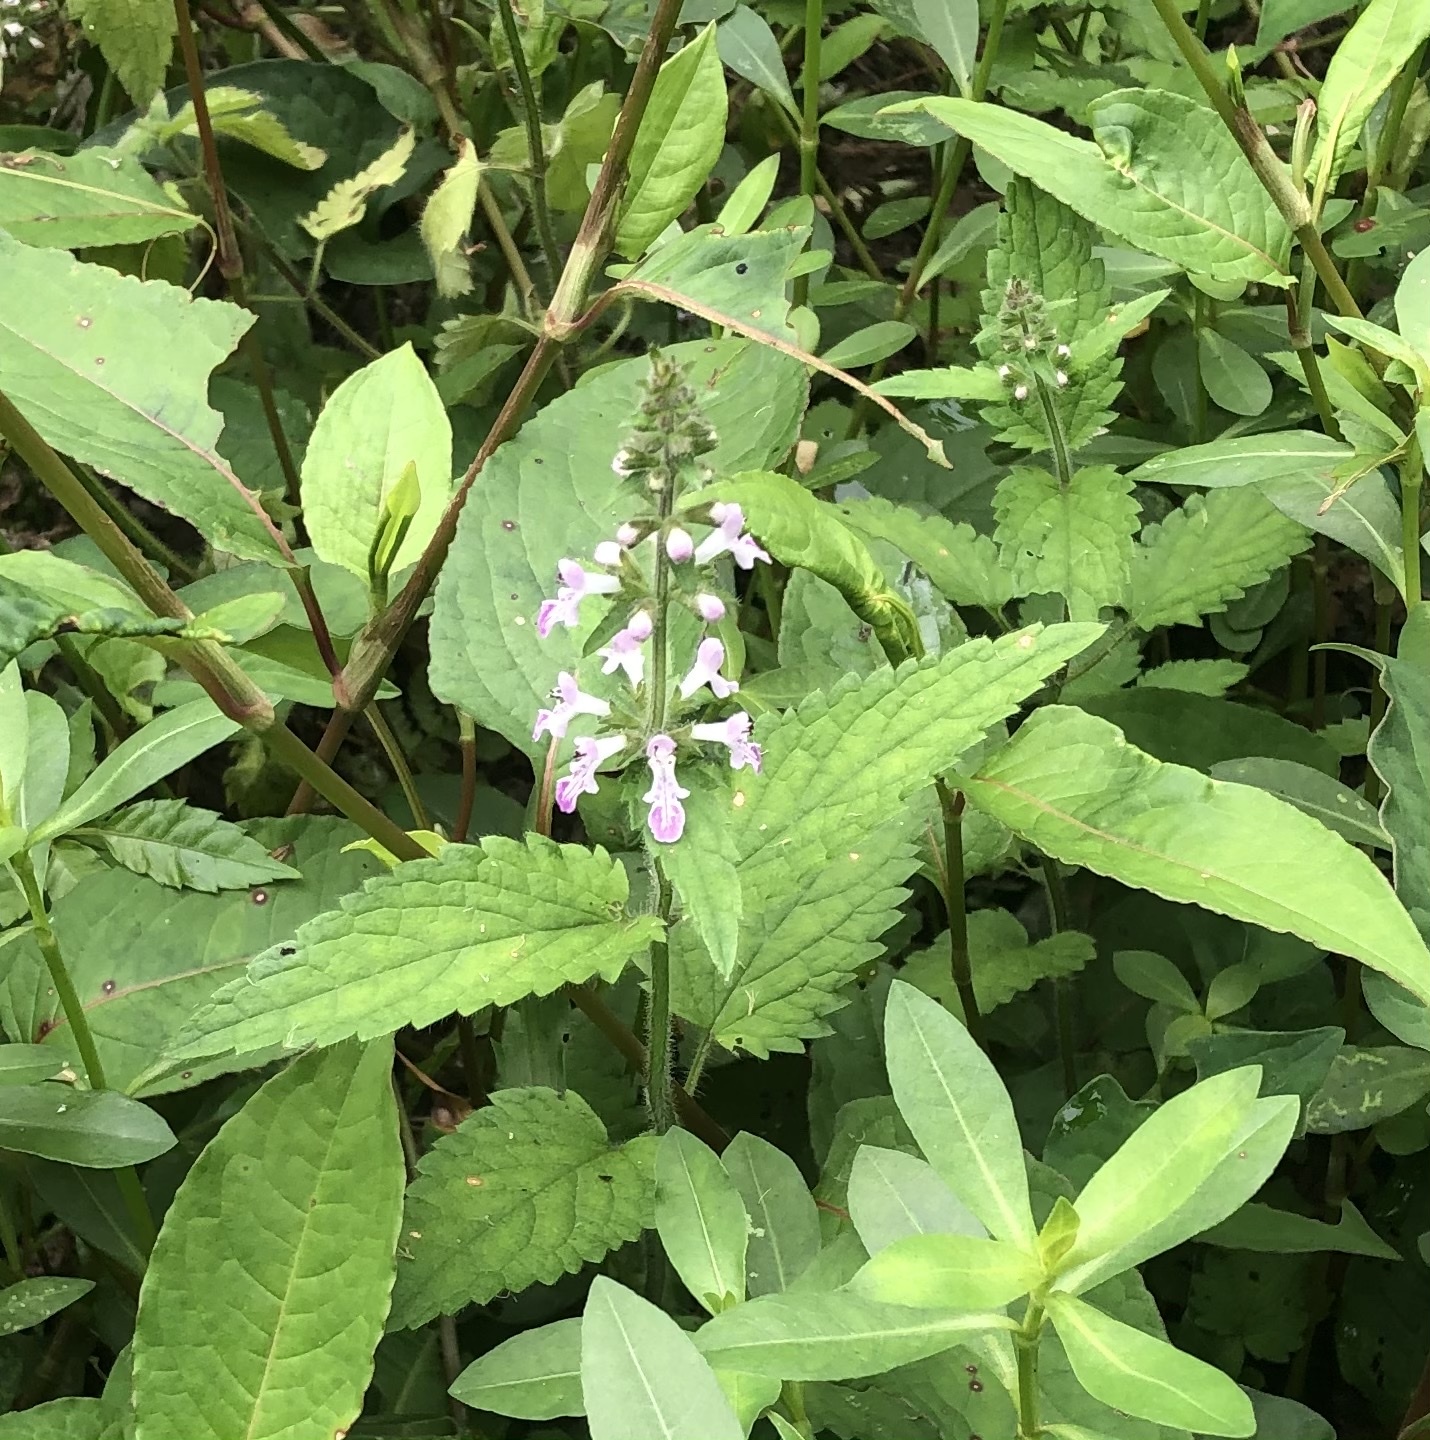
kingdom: Plantae
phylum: Tracheophyta
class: Magnoliopsida
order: Lamiales
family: Lamiaceae
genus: Stachys
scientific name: Stachys geobombycis
